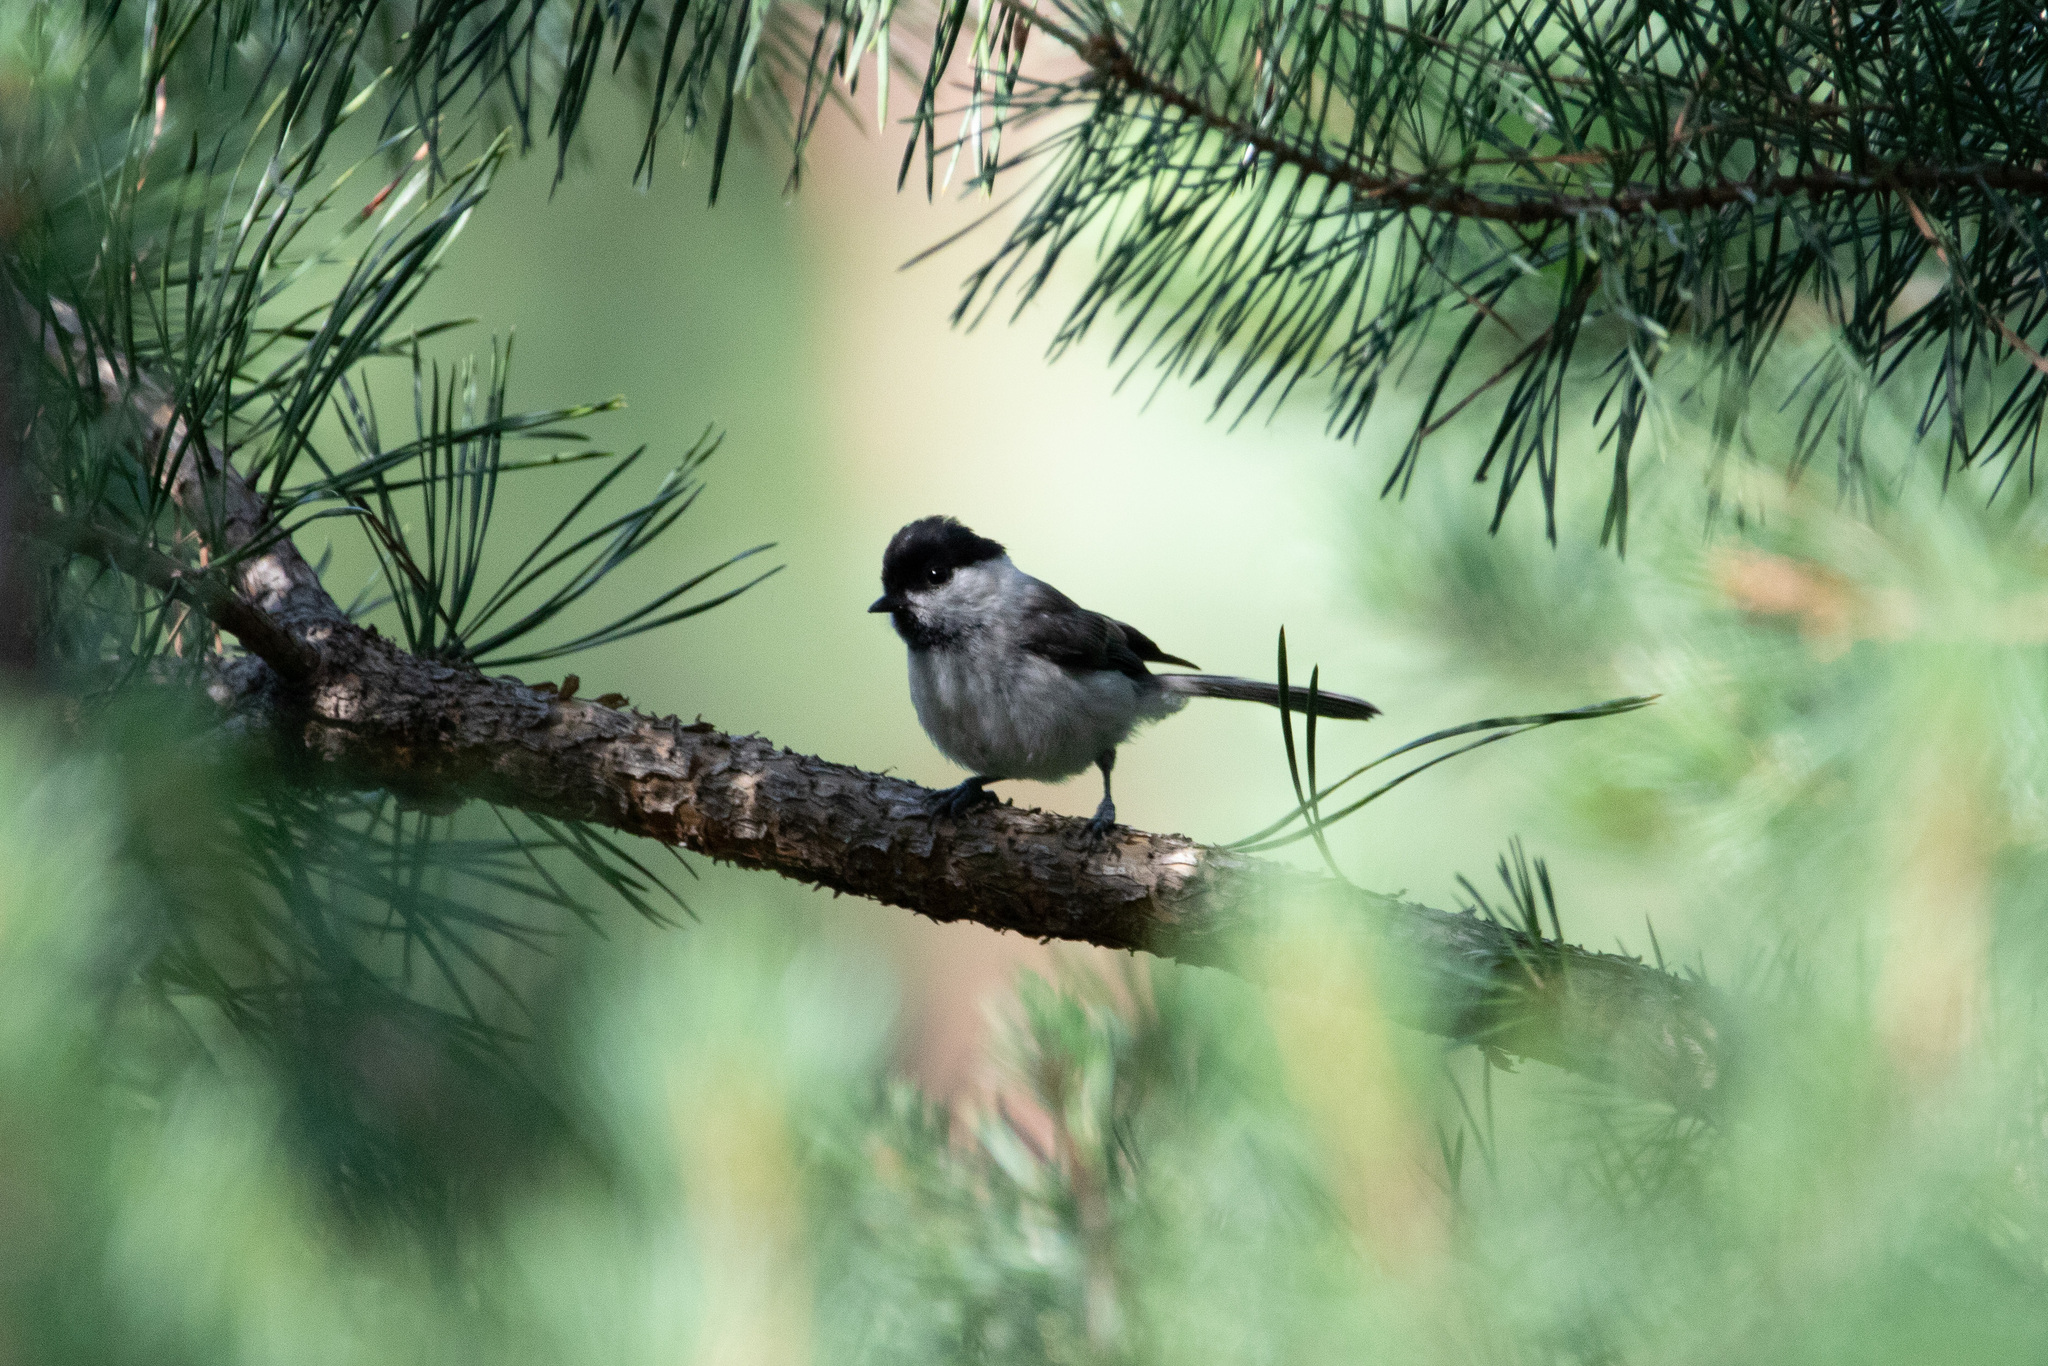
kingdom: Animalia
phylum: Chordata
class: Aves
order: Passeriformes
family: Paridae
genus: Poecile
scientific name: Poecile montanus
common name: Willow tit
